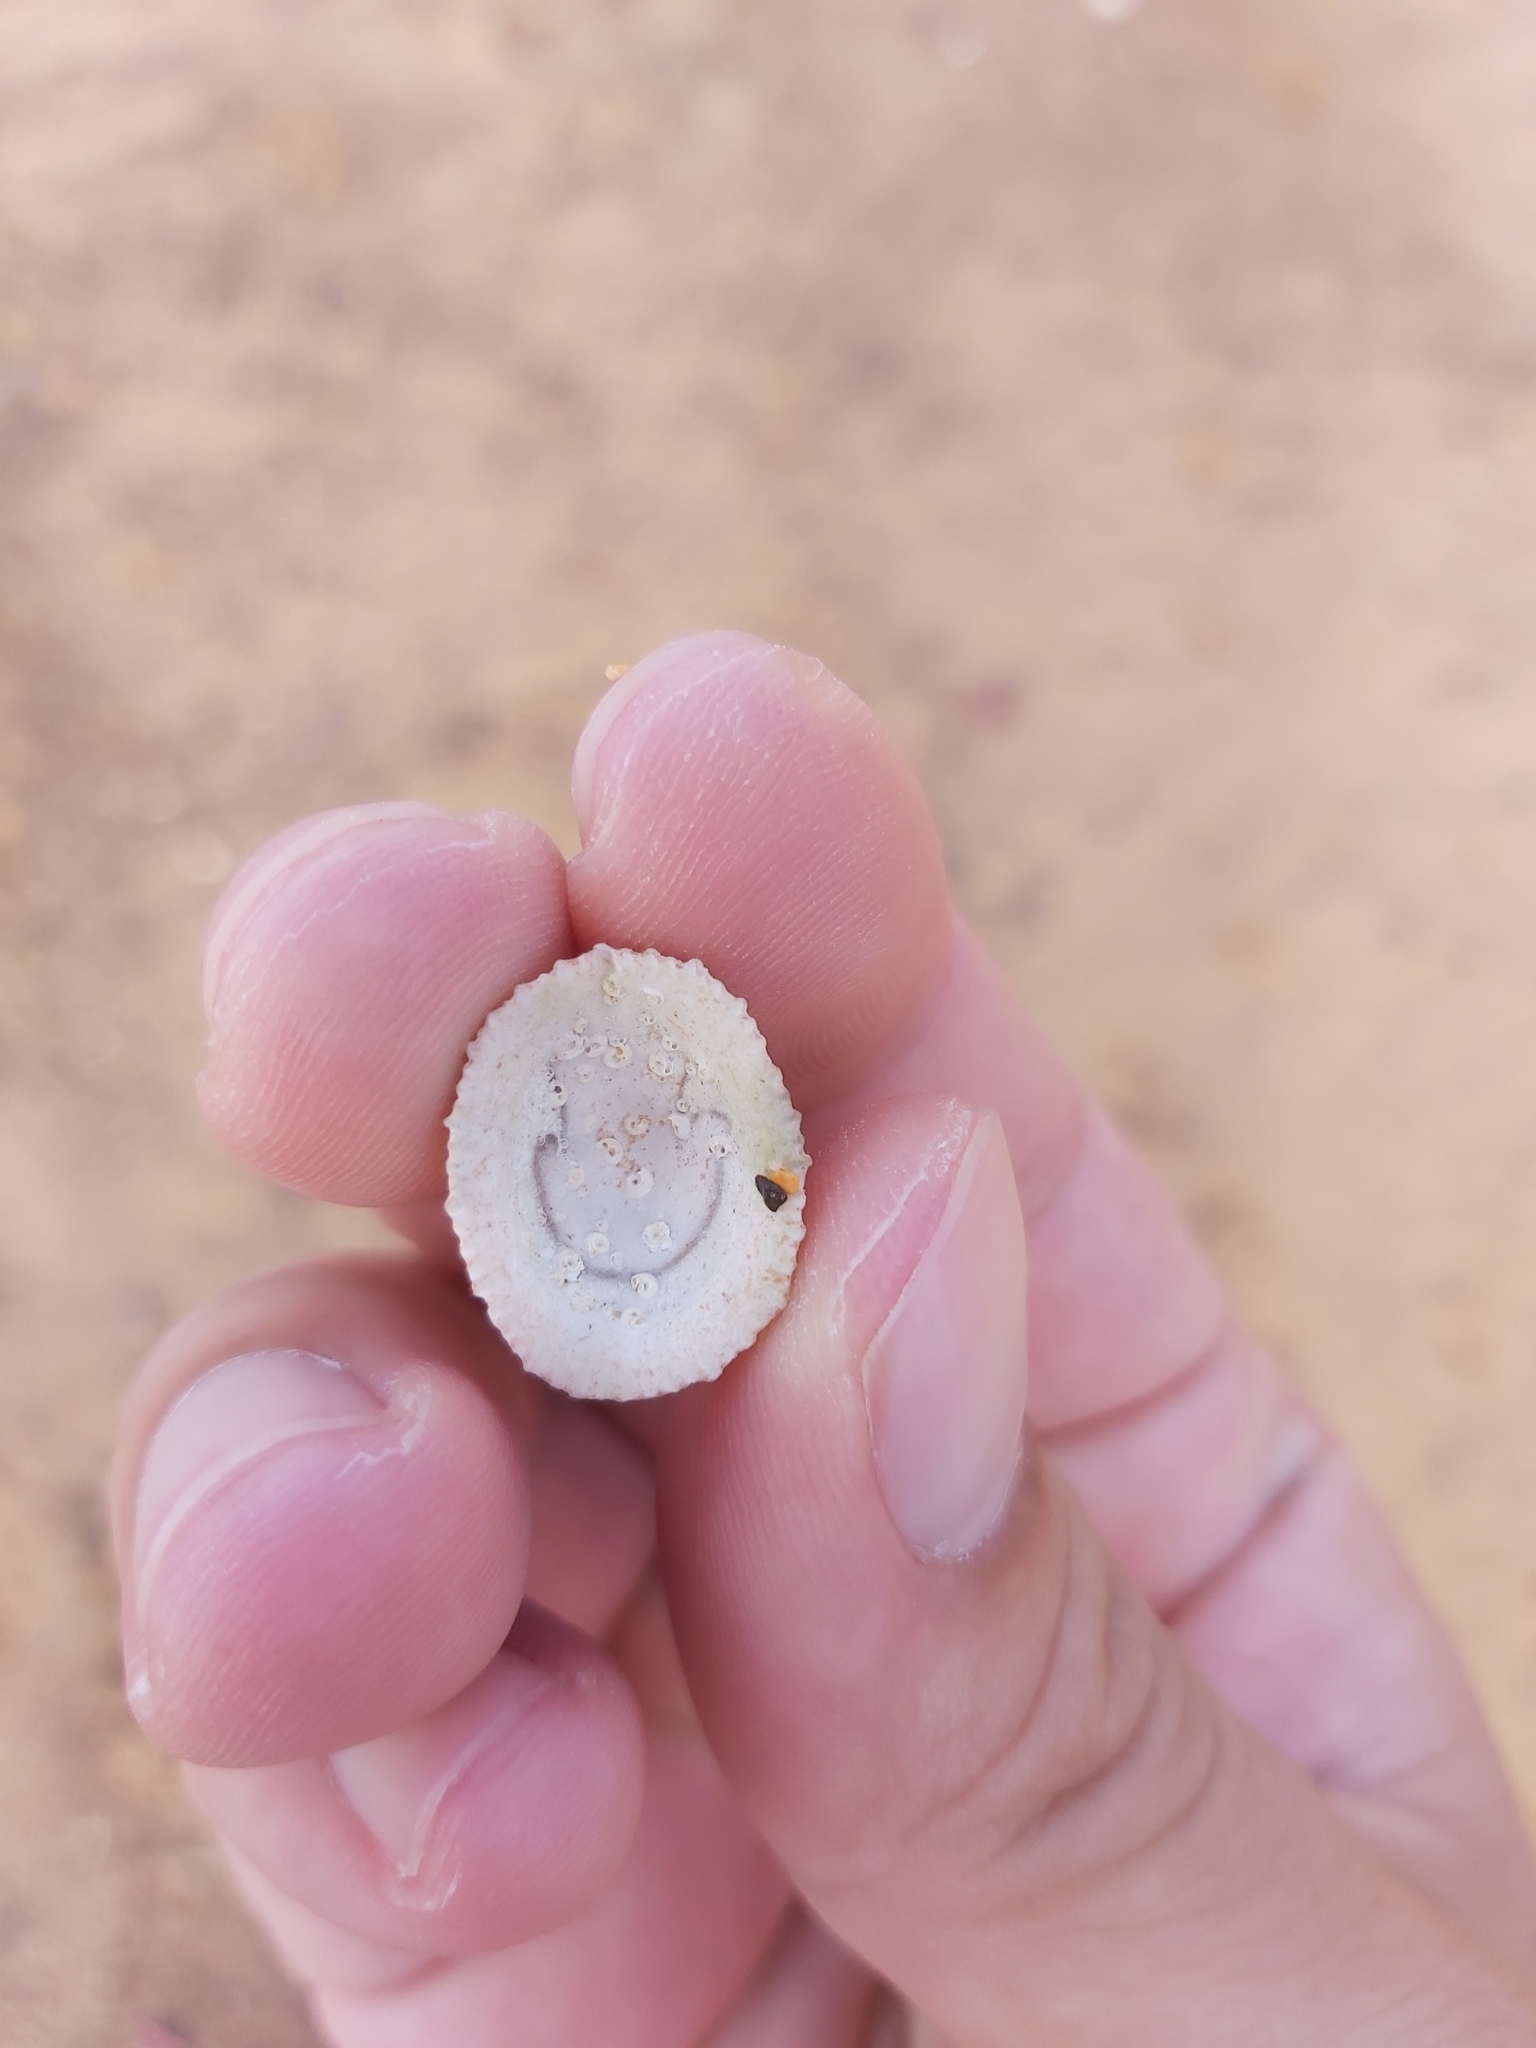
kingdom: Animalia
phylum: Mollusca
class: Gastropoda
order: Lepetellida
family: Fissurellidae
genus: Montfortula
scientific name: Montfortula rugosa
